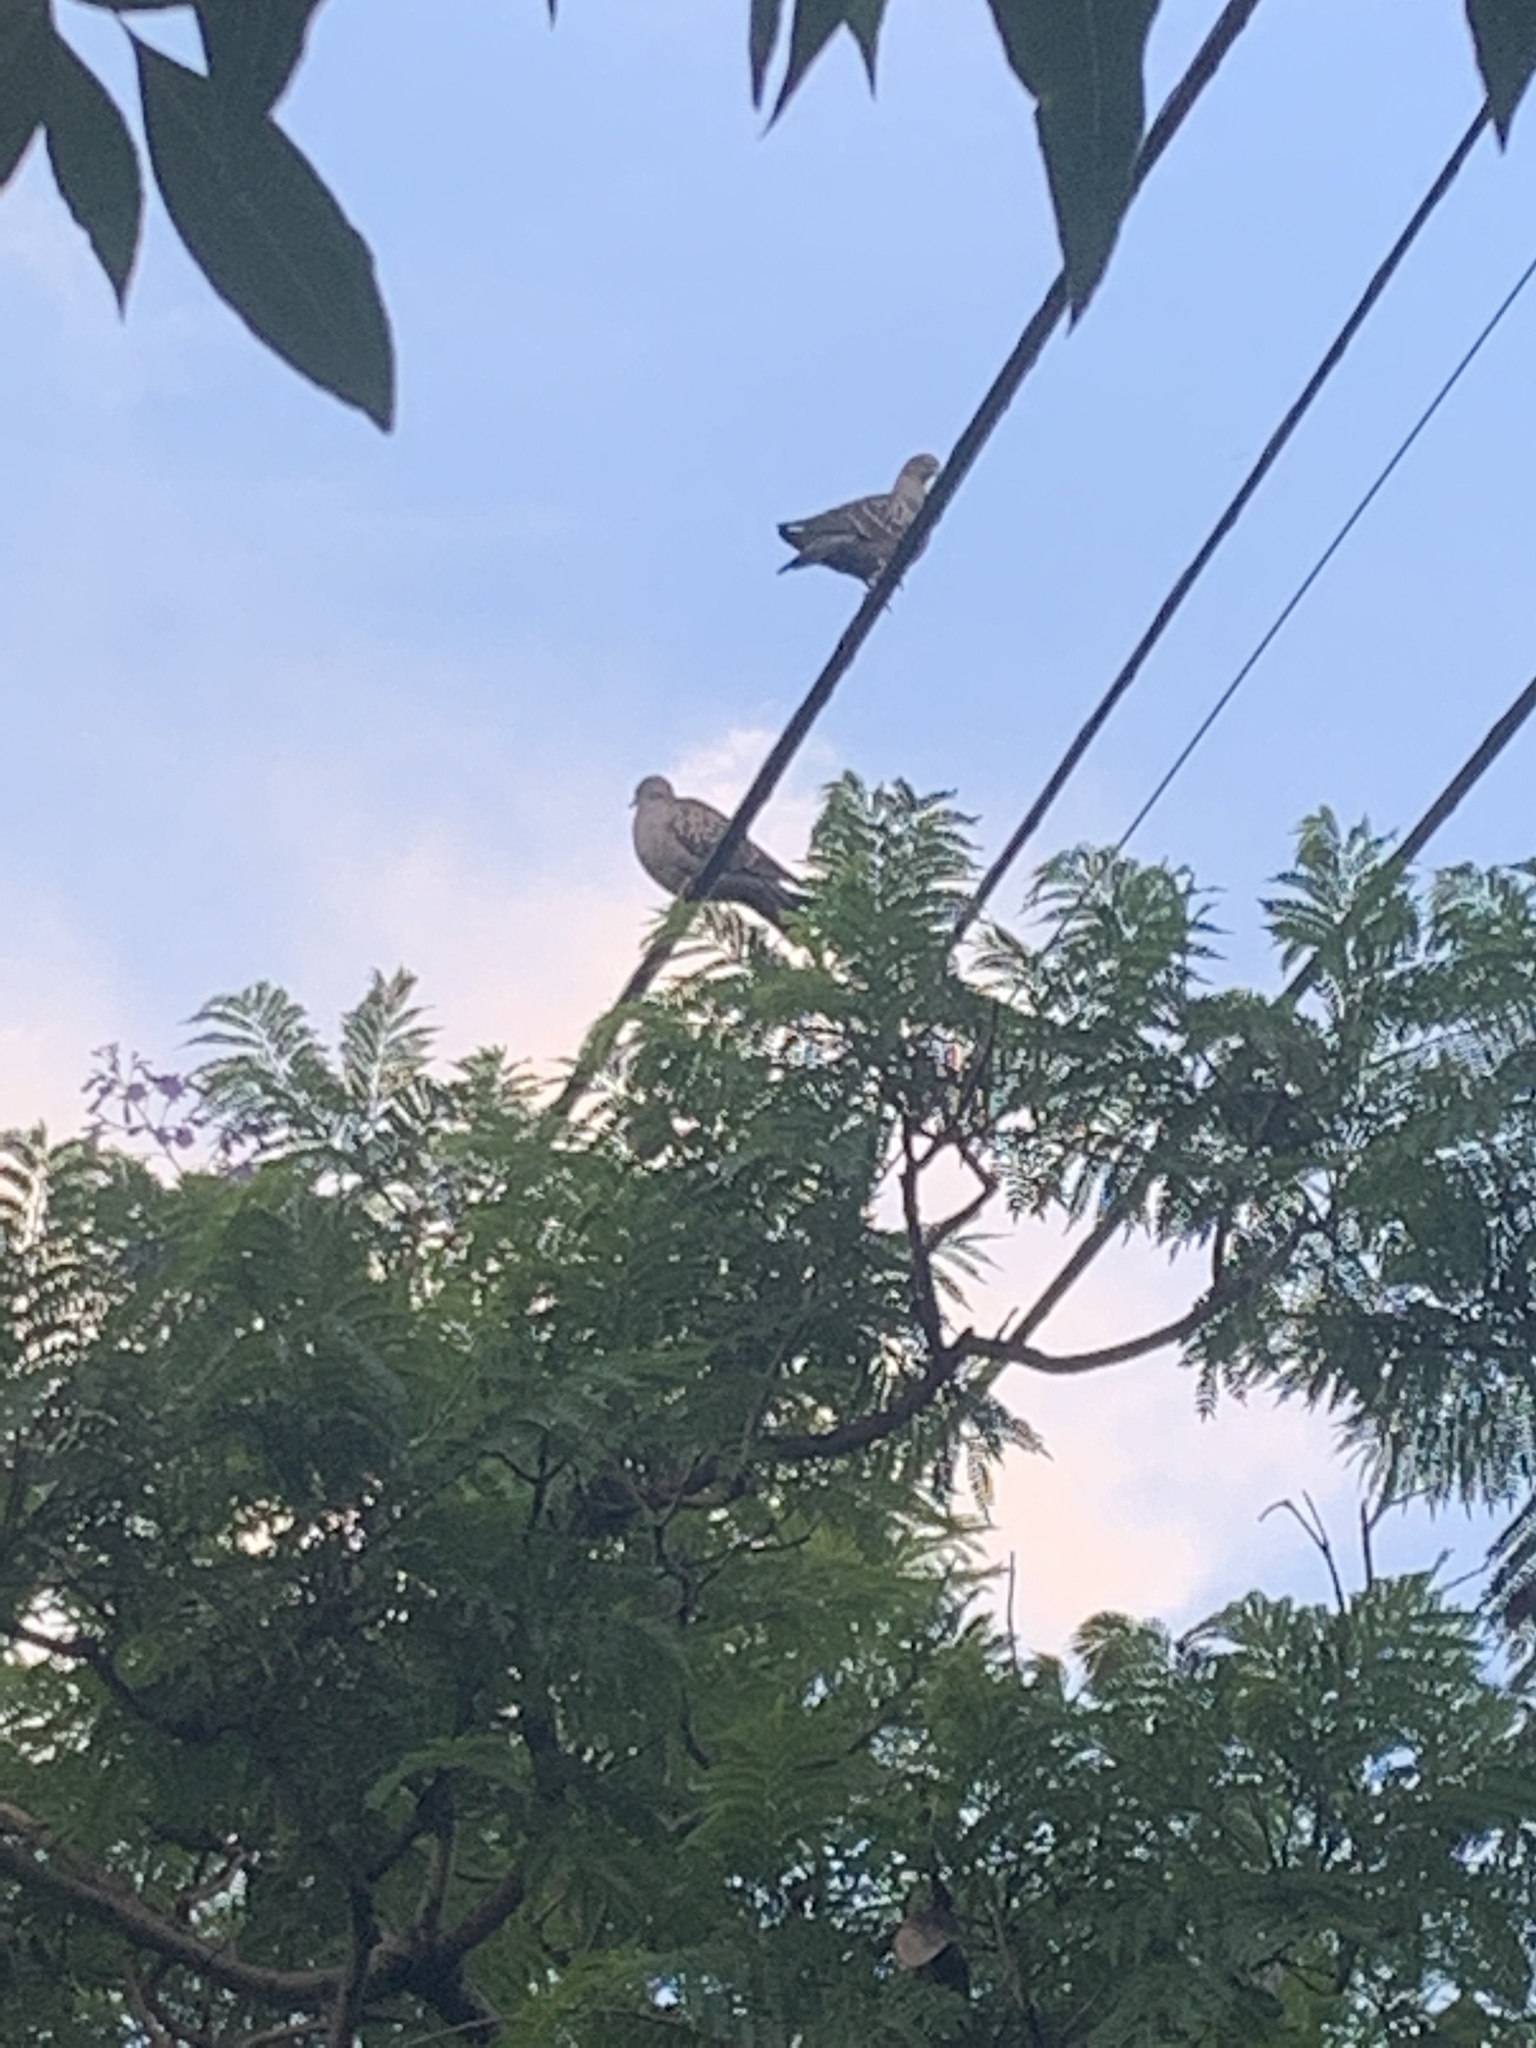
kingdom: Animalia
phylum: Chordata
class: Aves
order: Columbiformes
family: Columbidae
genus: Patagioenas
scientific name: Patagioenas maculosa
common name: Spot-winged pigeon
